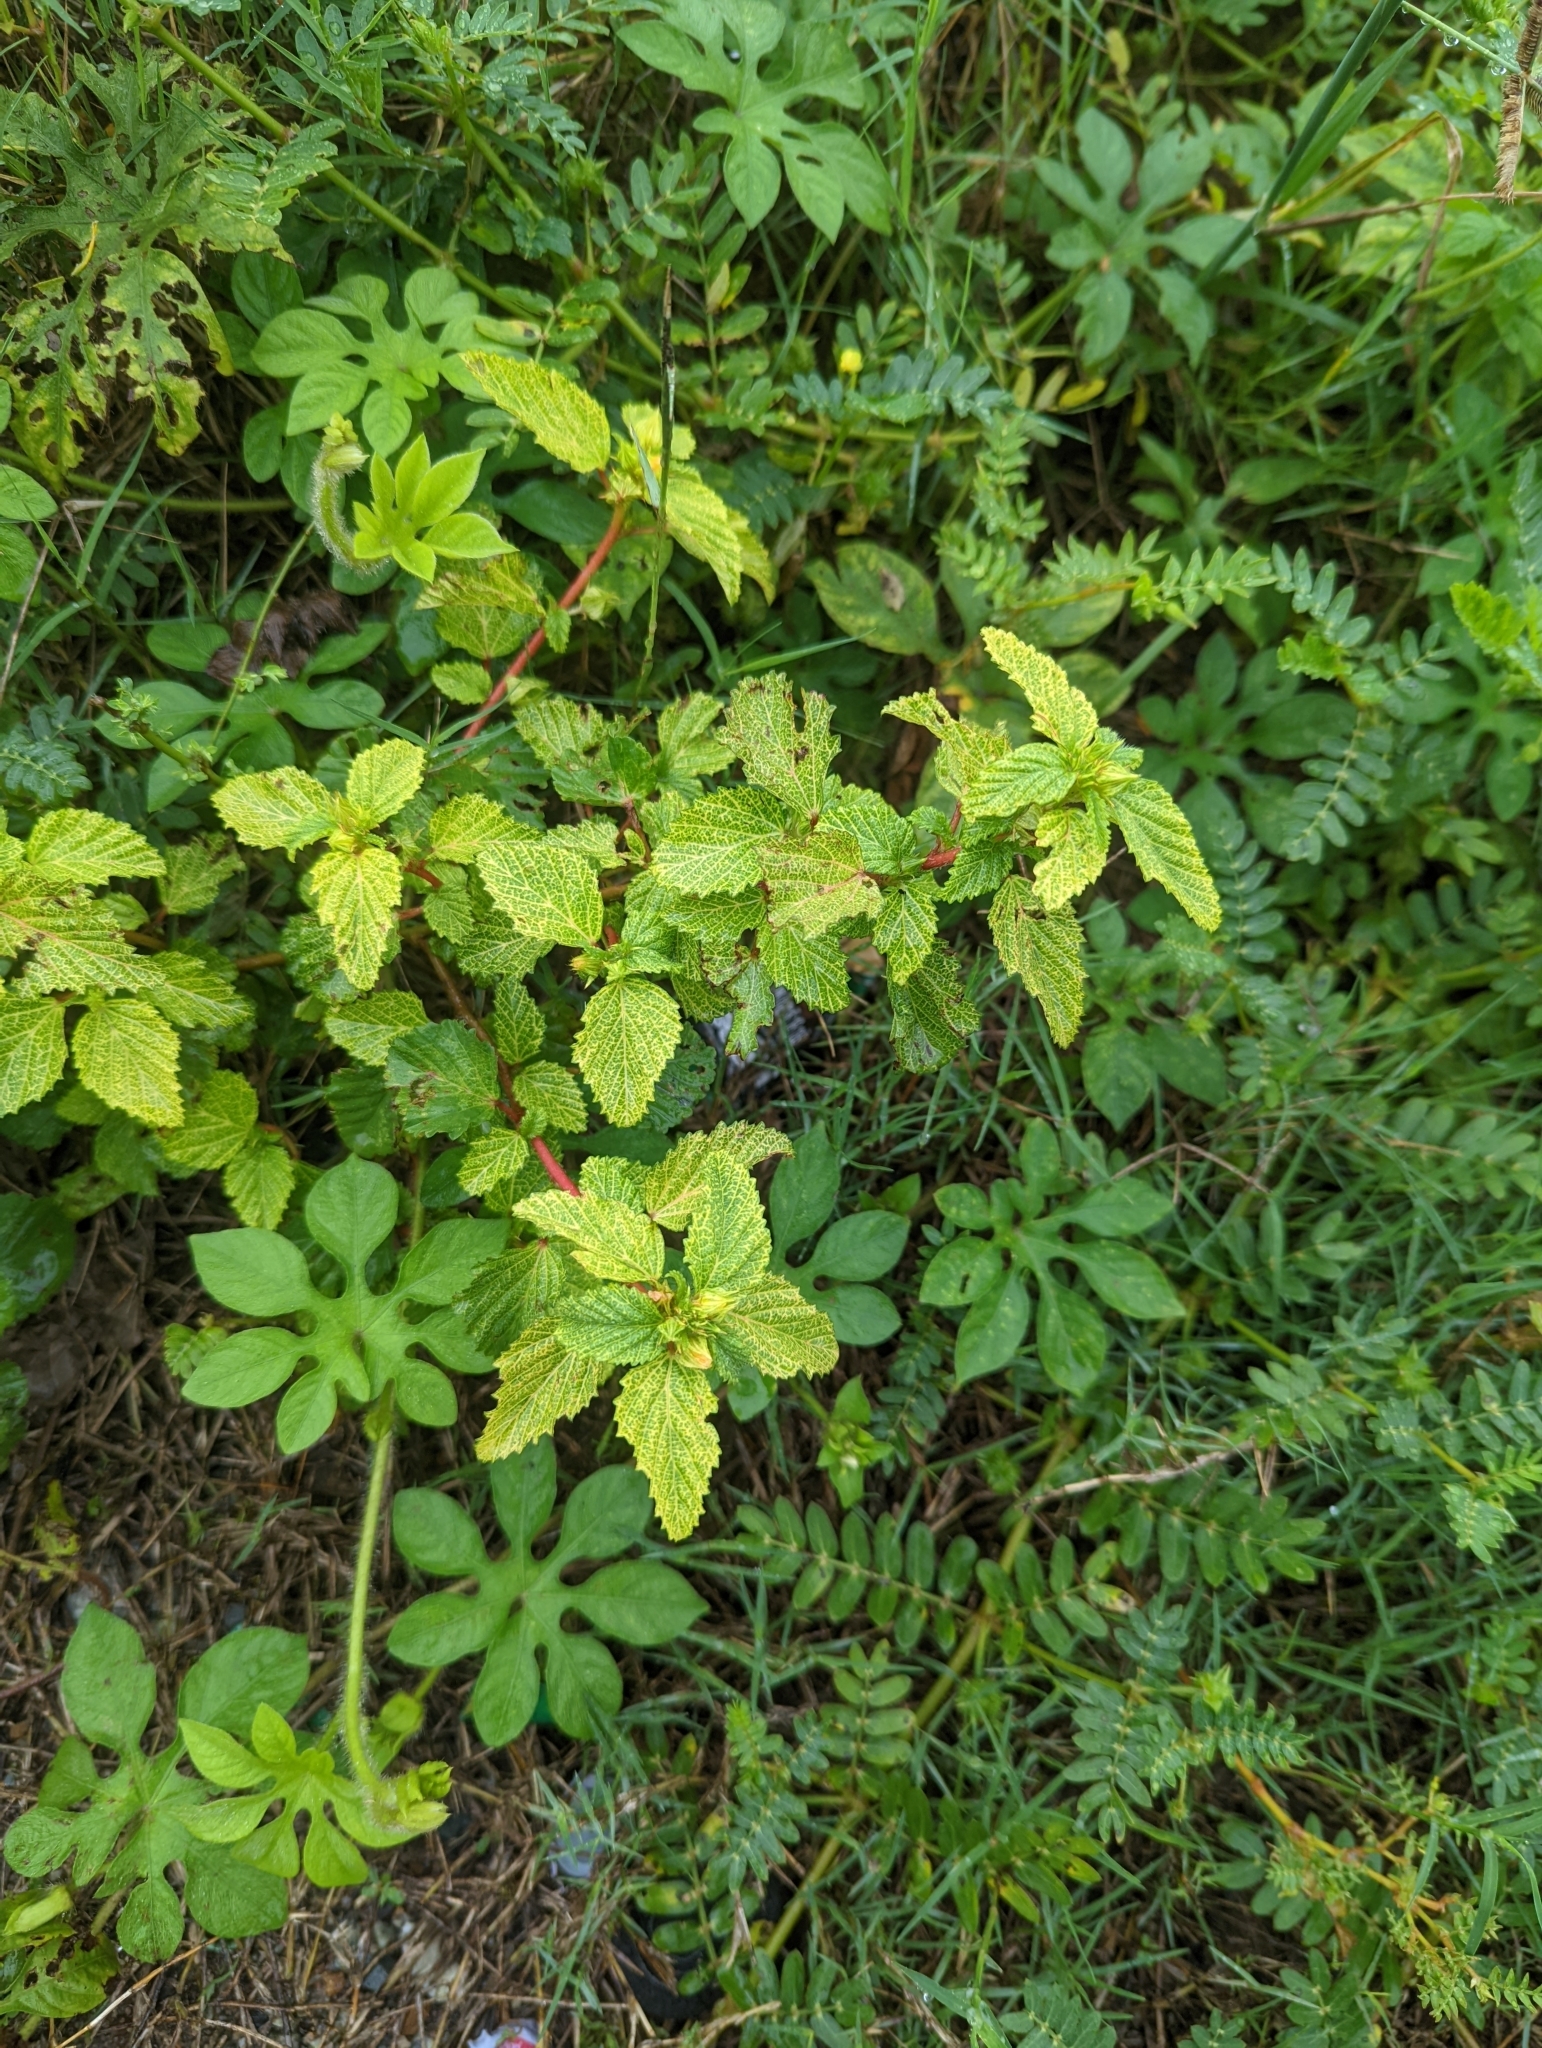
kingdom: Plantae
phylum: Tracheophyta
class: Magnoliopsida
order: Malvales
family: Malvaceae
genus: Malvastrum
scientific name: Malvastrum coromandelianum
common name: Threelobe false mallow
